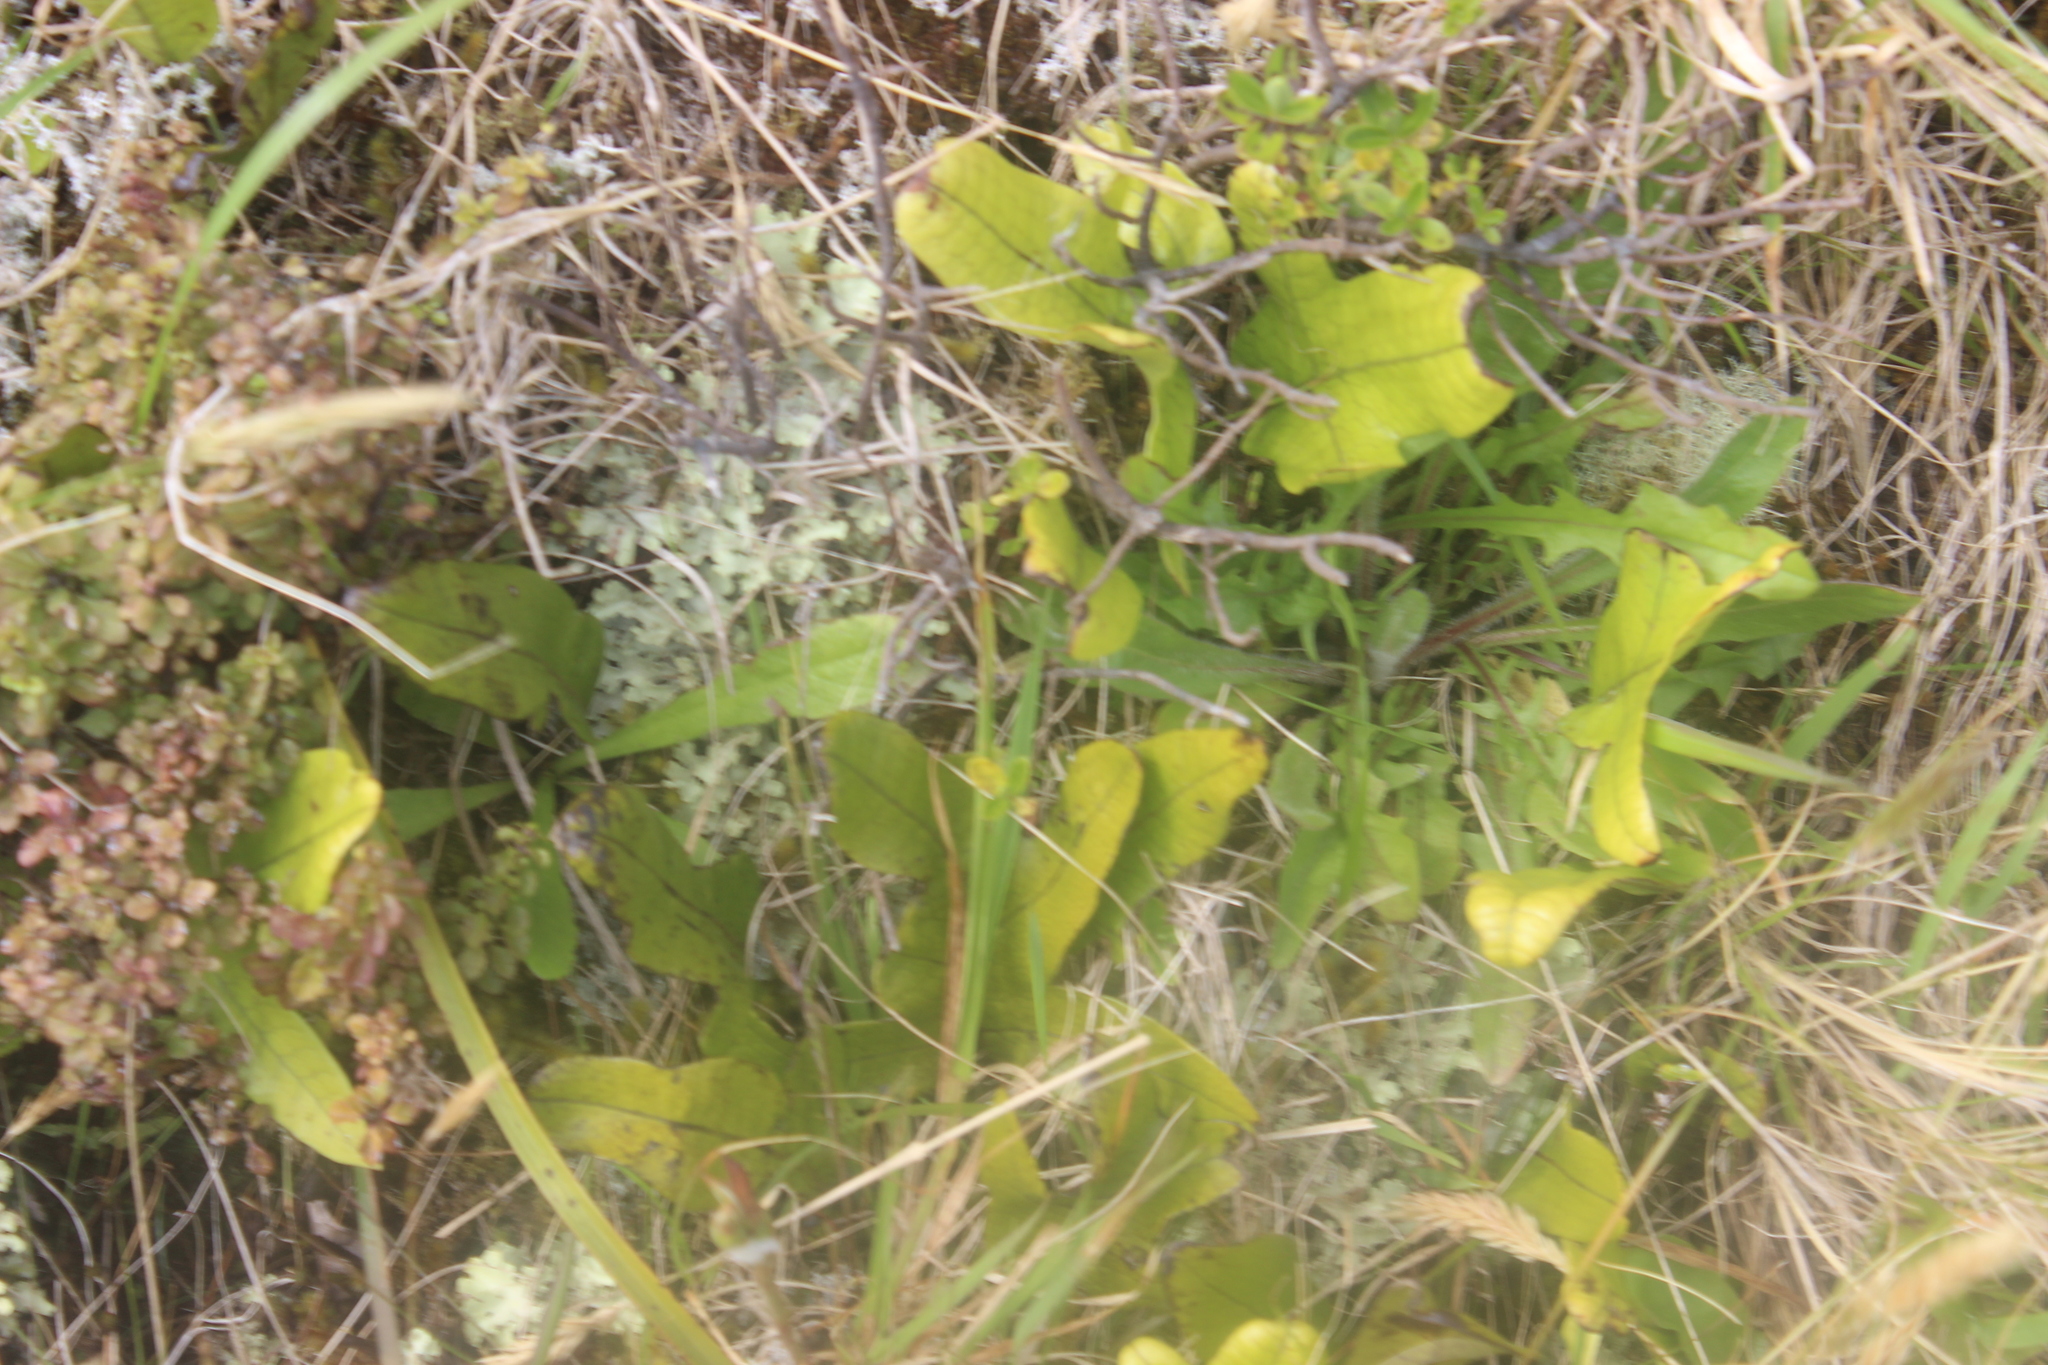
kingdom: Plantae
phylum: Tracheophyta
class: Polypodiopsida
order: Polypodiales
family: Polypodiaceae
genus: Lecanopteris
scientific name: Lecanopteris pustulata
